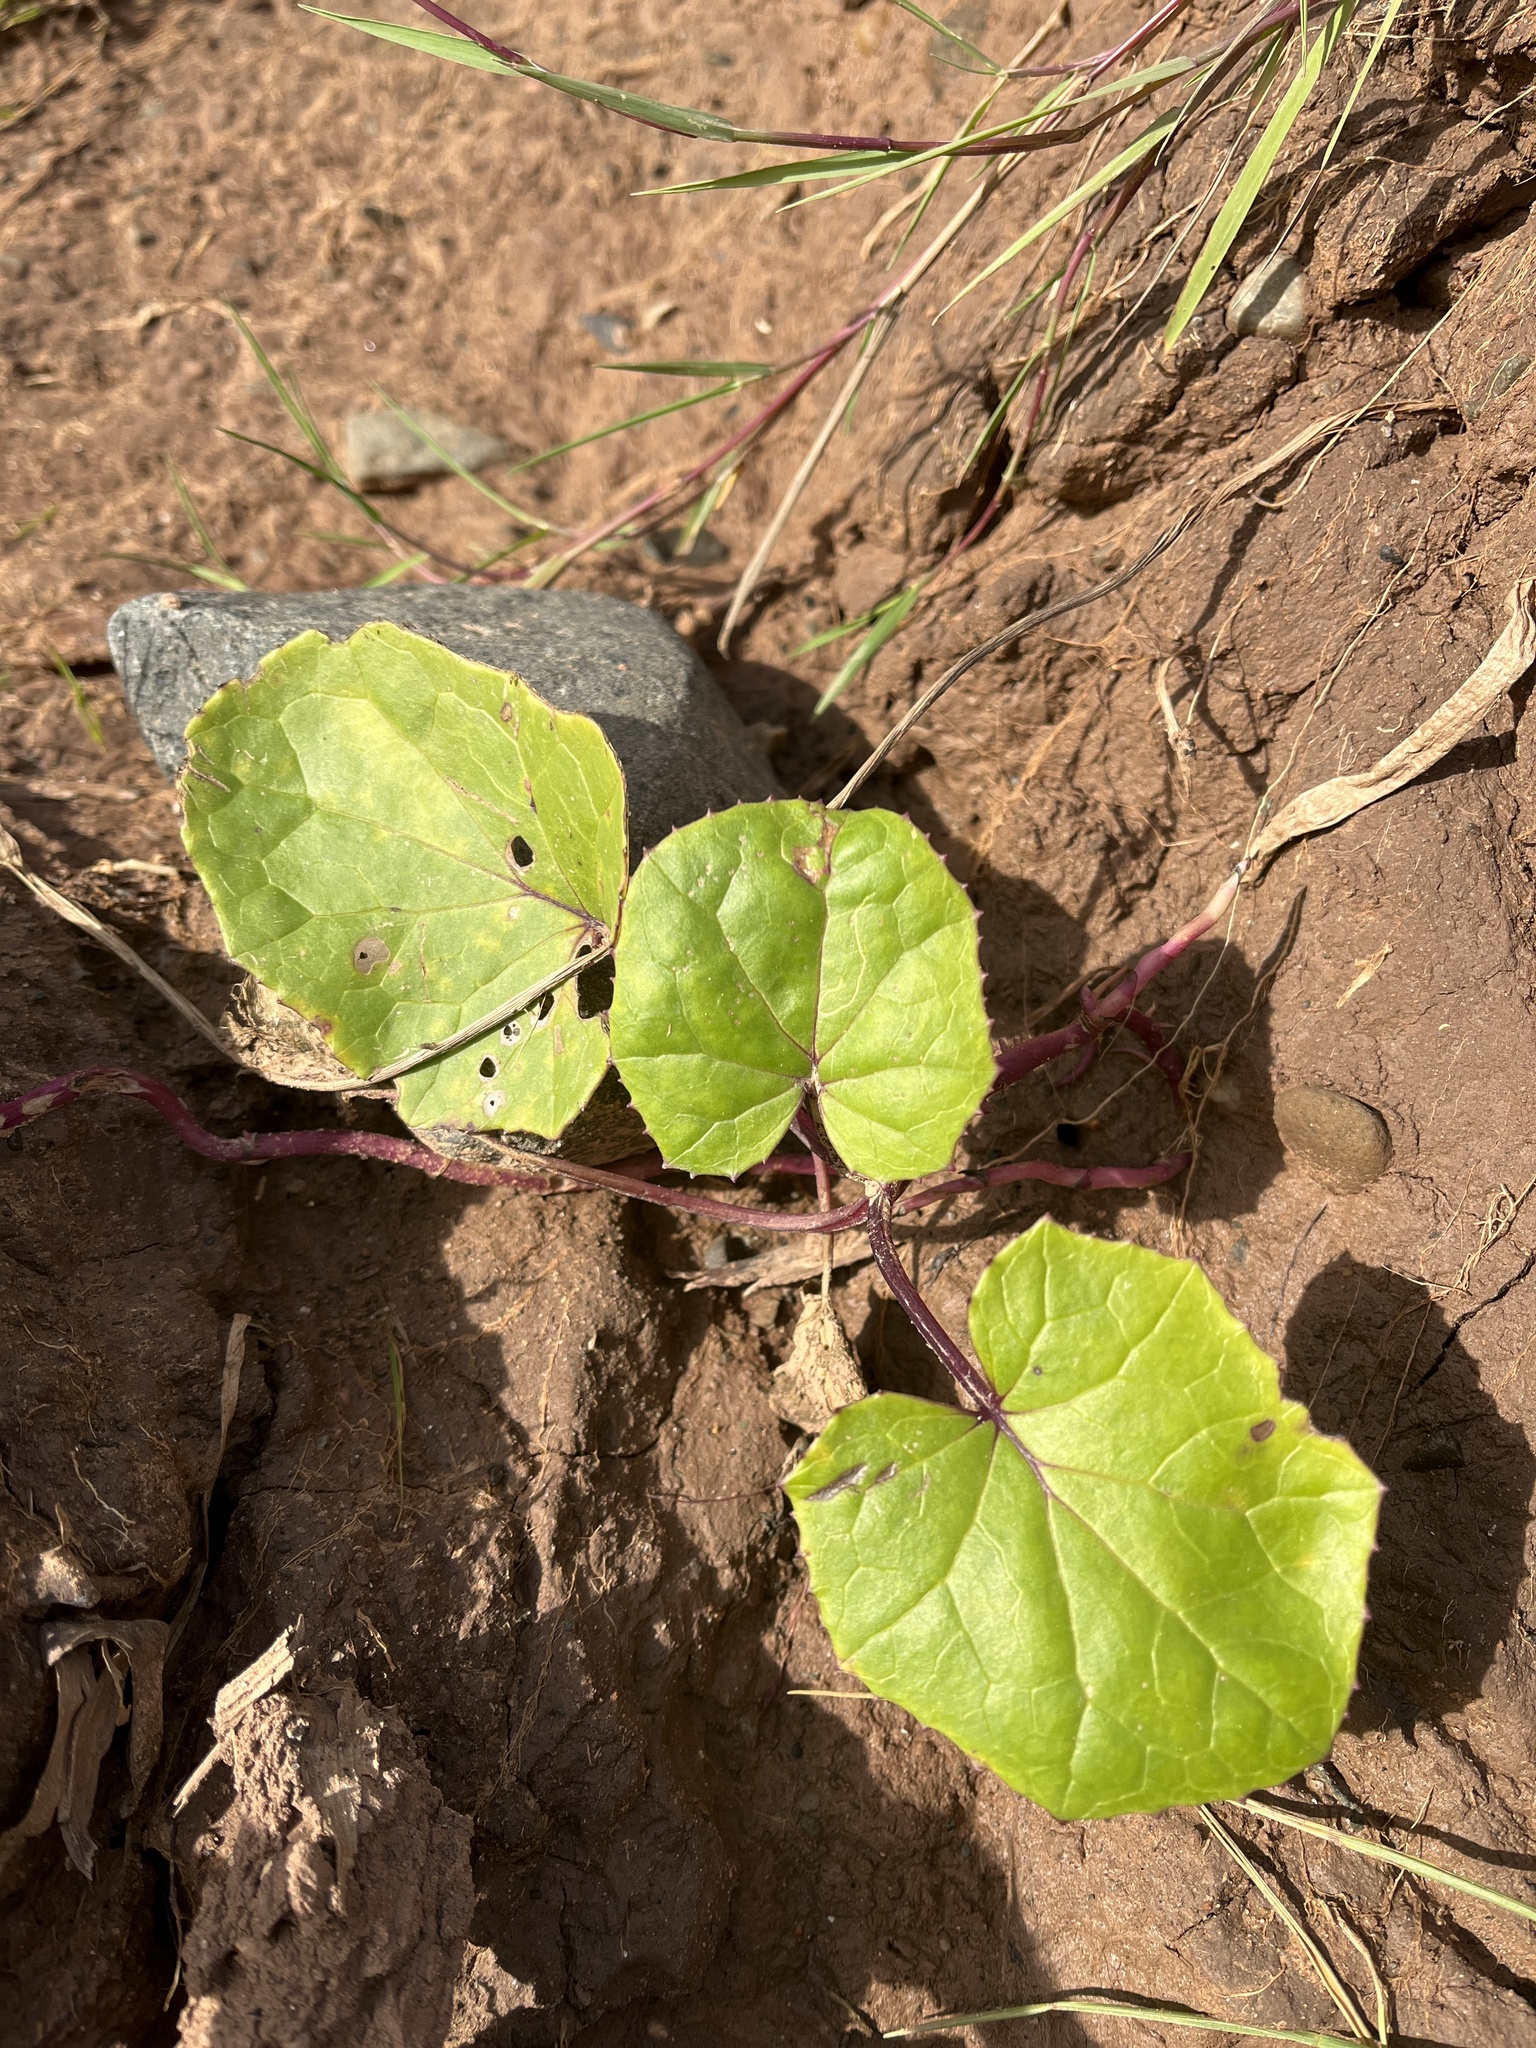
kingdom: Plantae
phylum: Tracheophyta
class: Magnoliopsida
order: Asterales
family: Asteraceae
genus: Tussilago
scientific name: Tussilago farfara
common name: Coltsfoot
